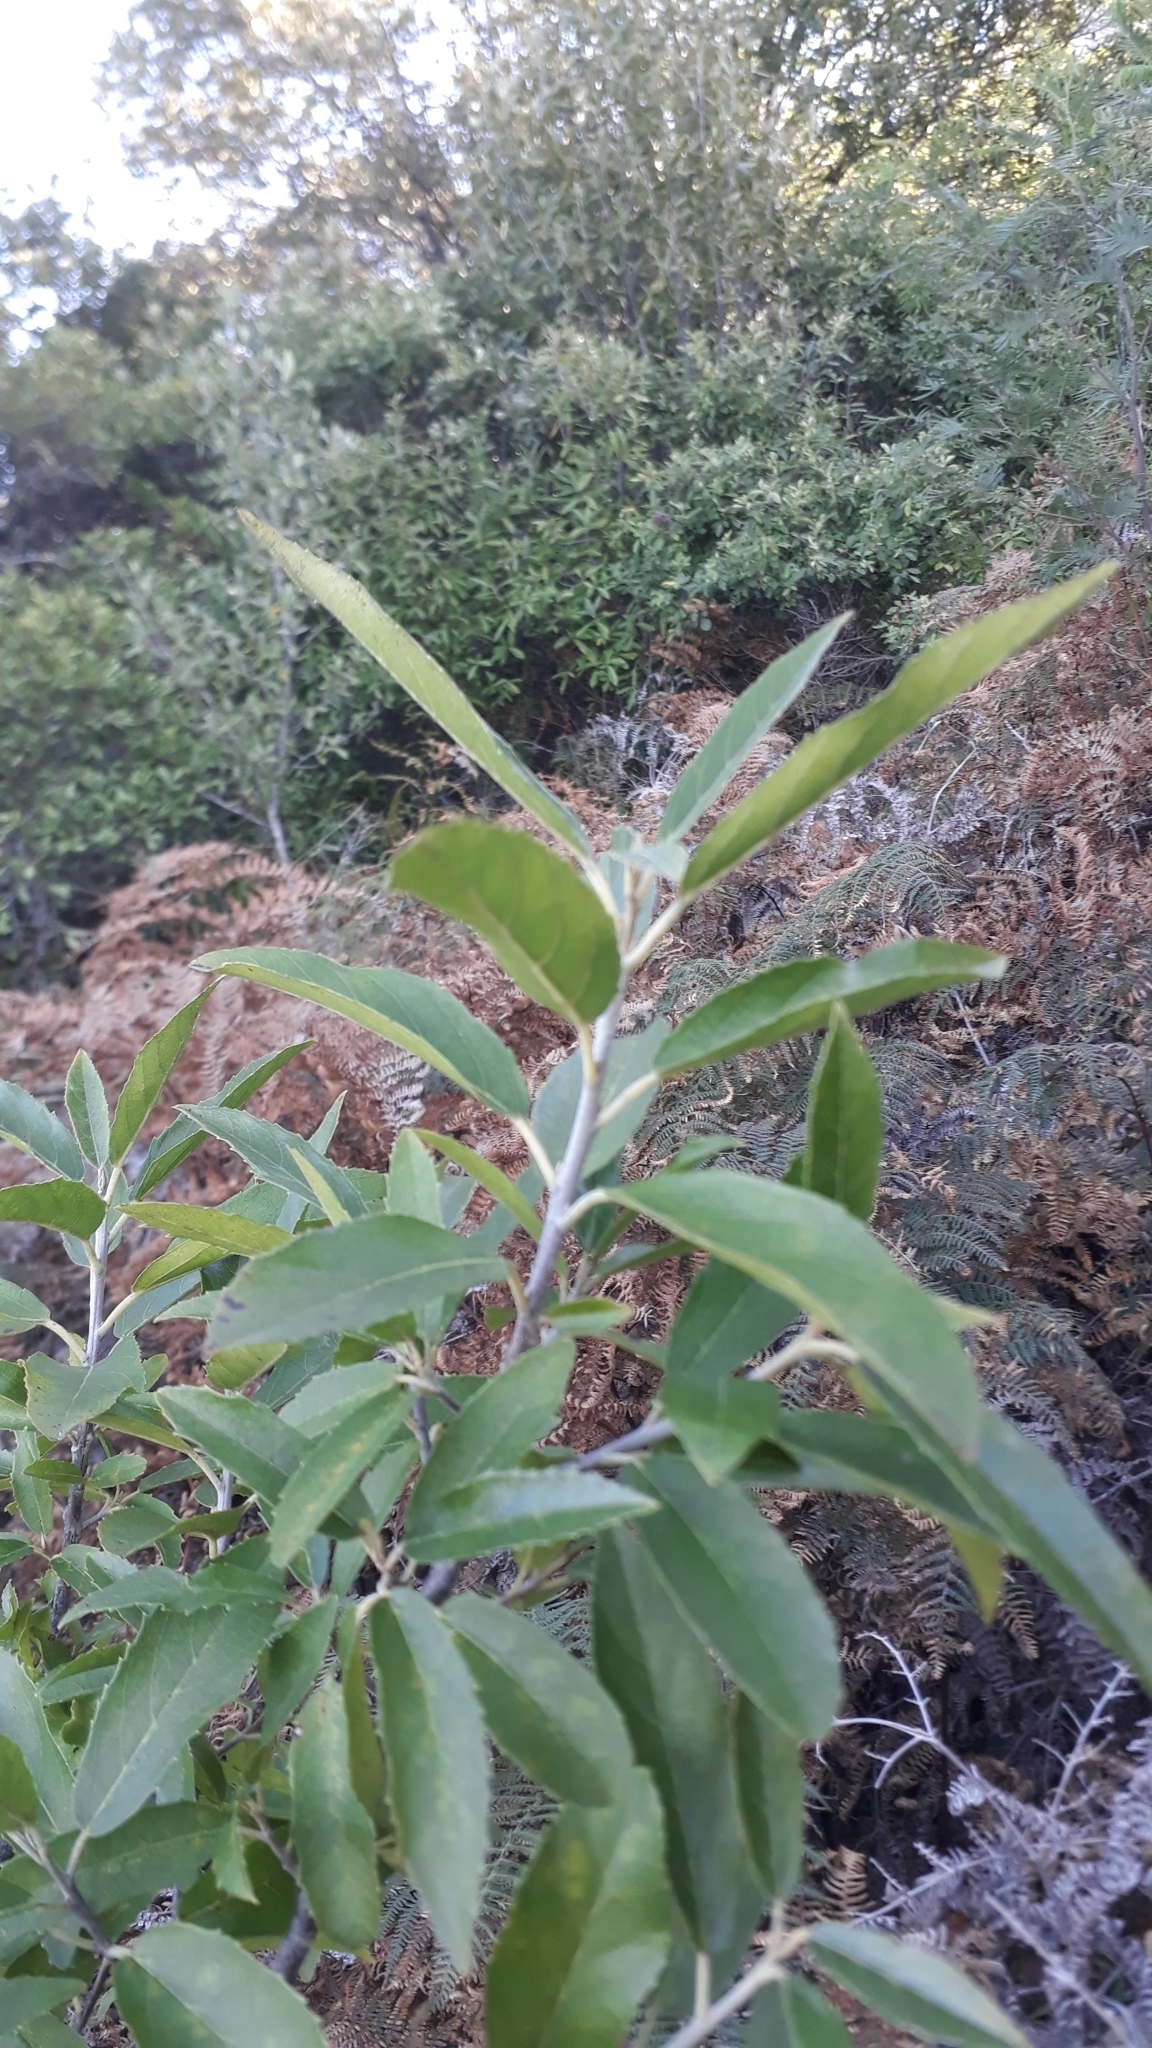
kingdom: Plantae
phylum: Tracheophyta
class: Magnoliopsida
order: Malpighiales
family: Achariaceae
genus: Kiggelaria
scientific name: Kiggelaria africana
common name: Wild peach
